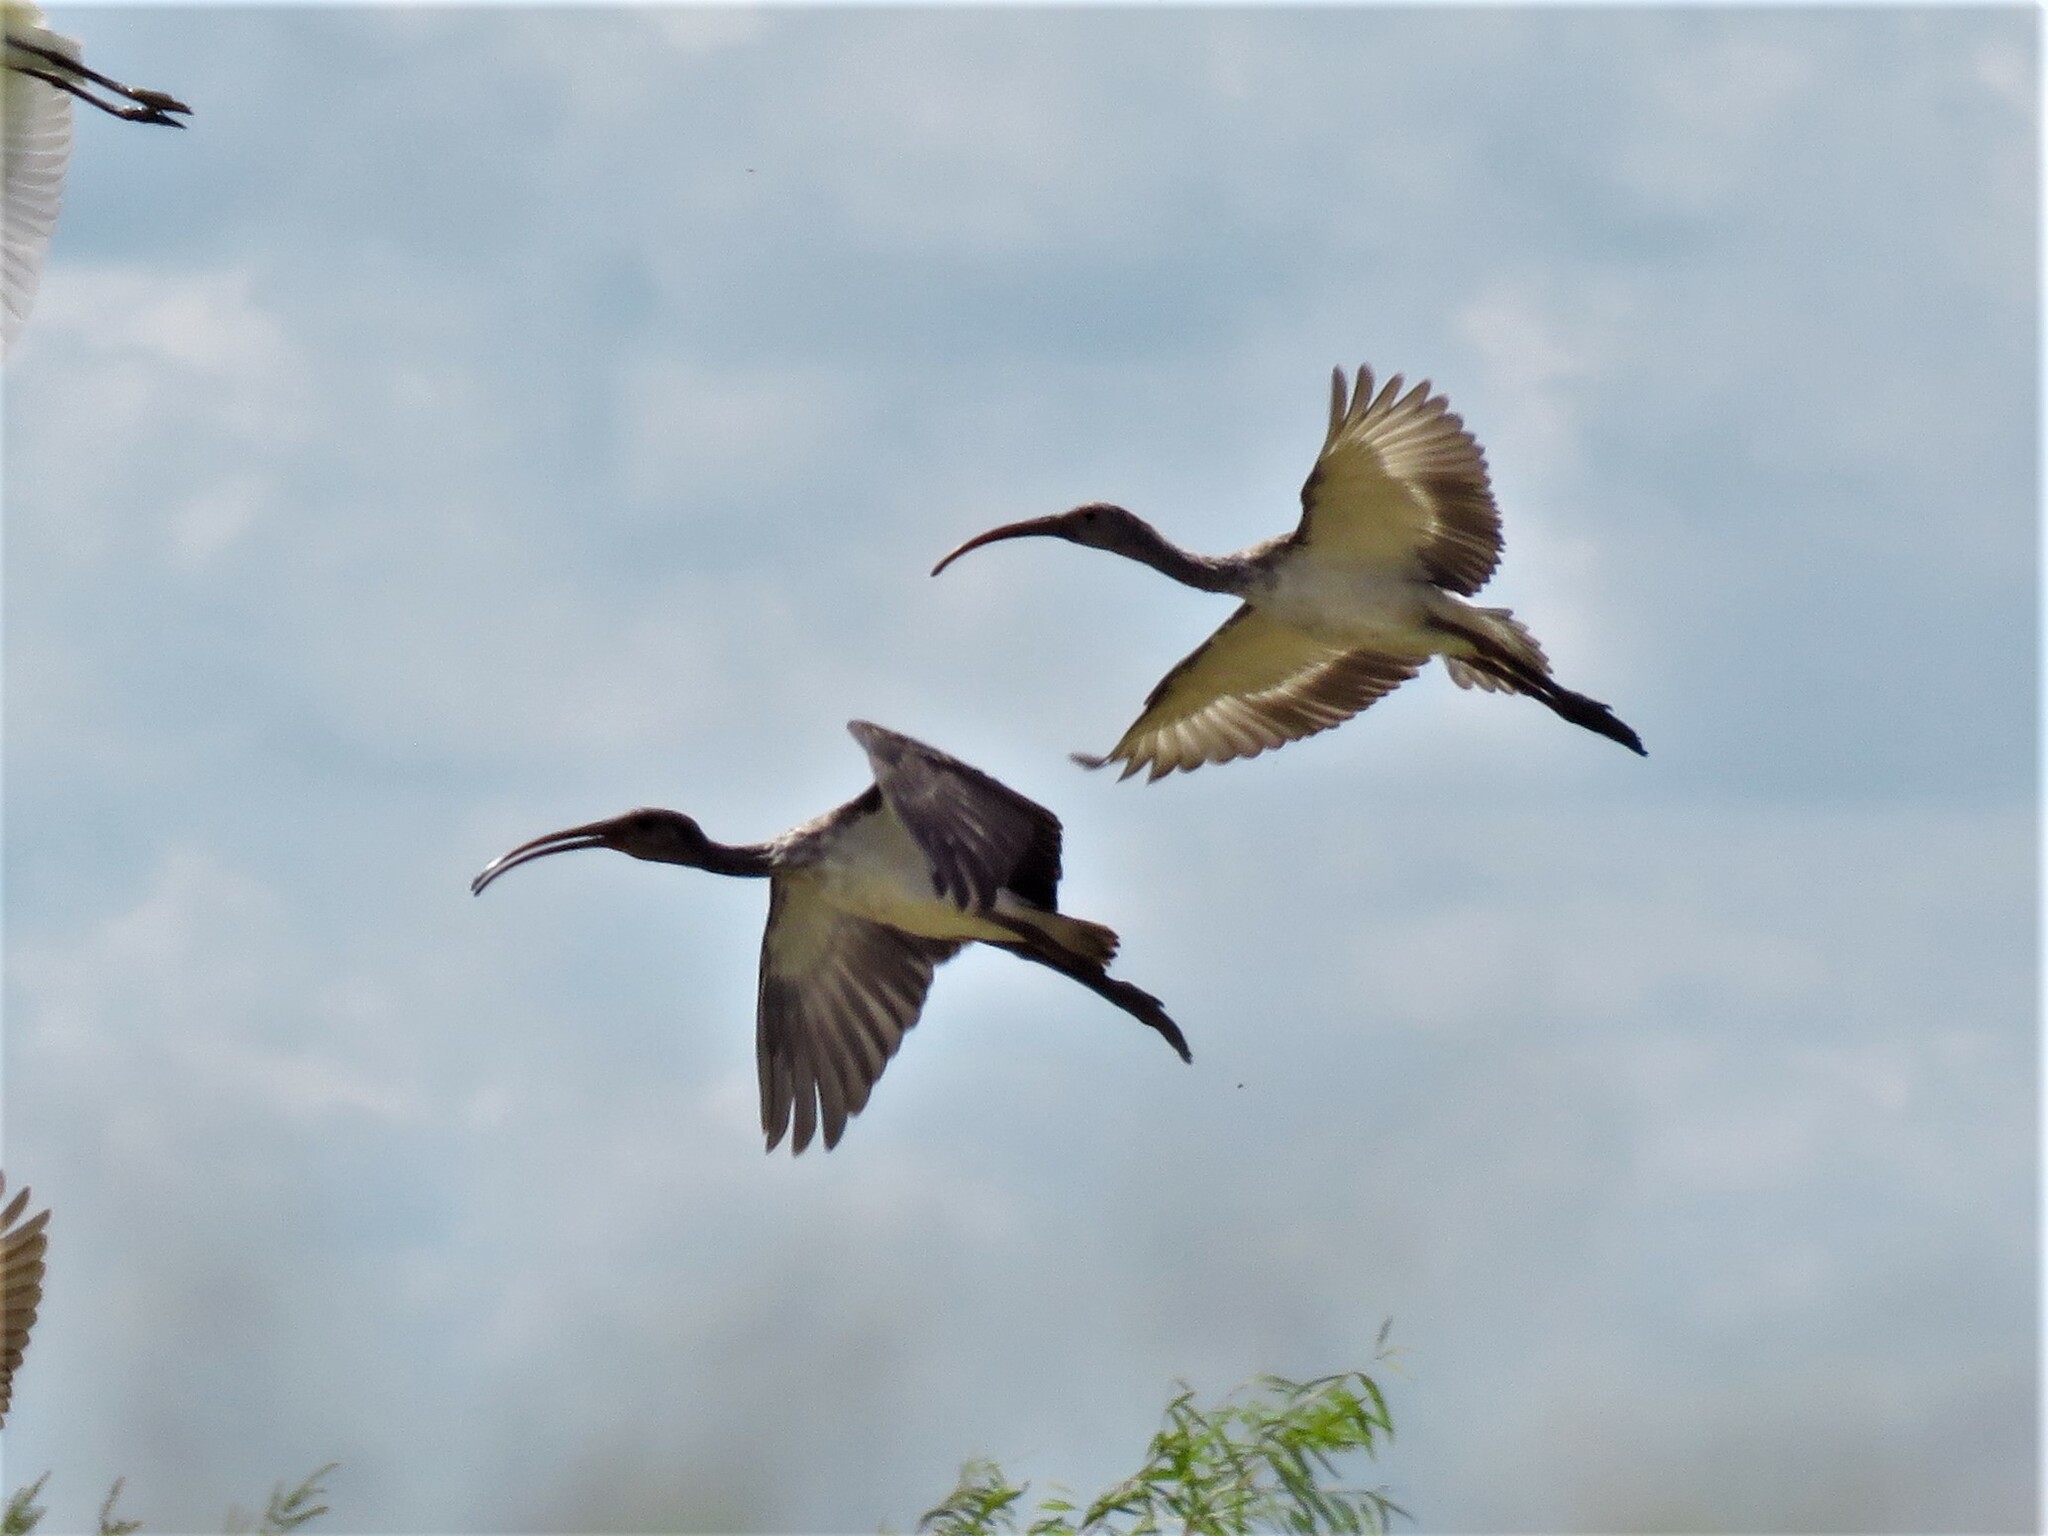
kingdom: Animalia
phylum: Chordata
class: Aves
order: Pelecaniformes
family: Threskiornithidae
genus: Eudocimus
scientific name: Eudocimus albus
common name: White ibis
